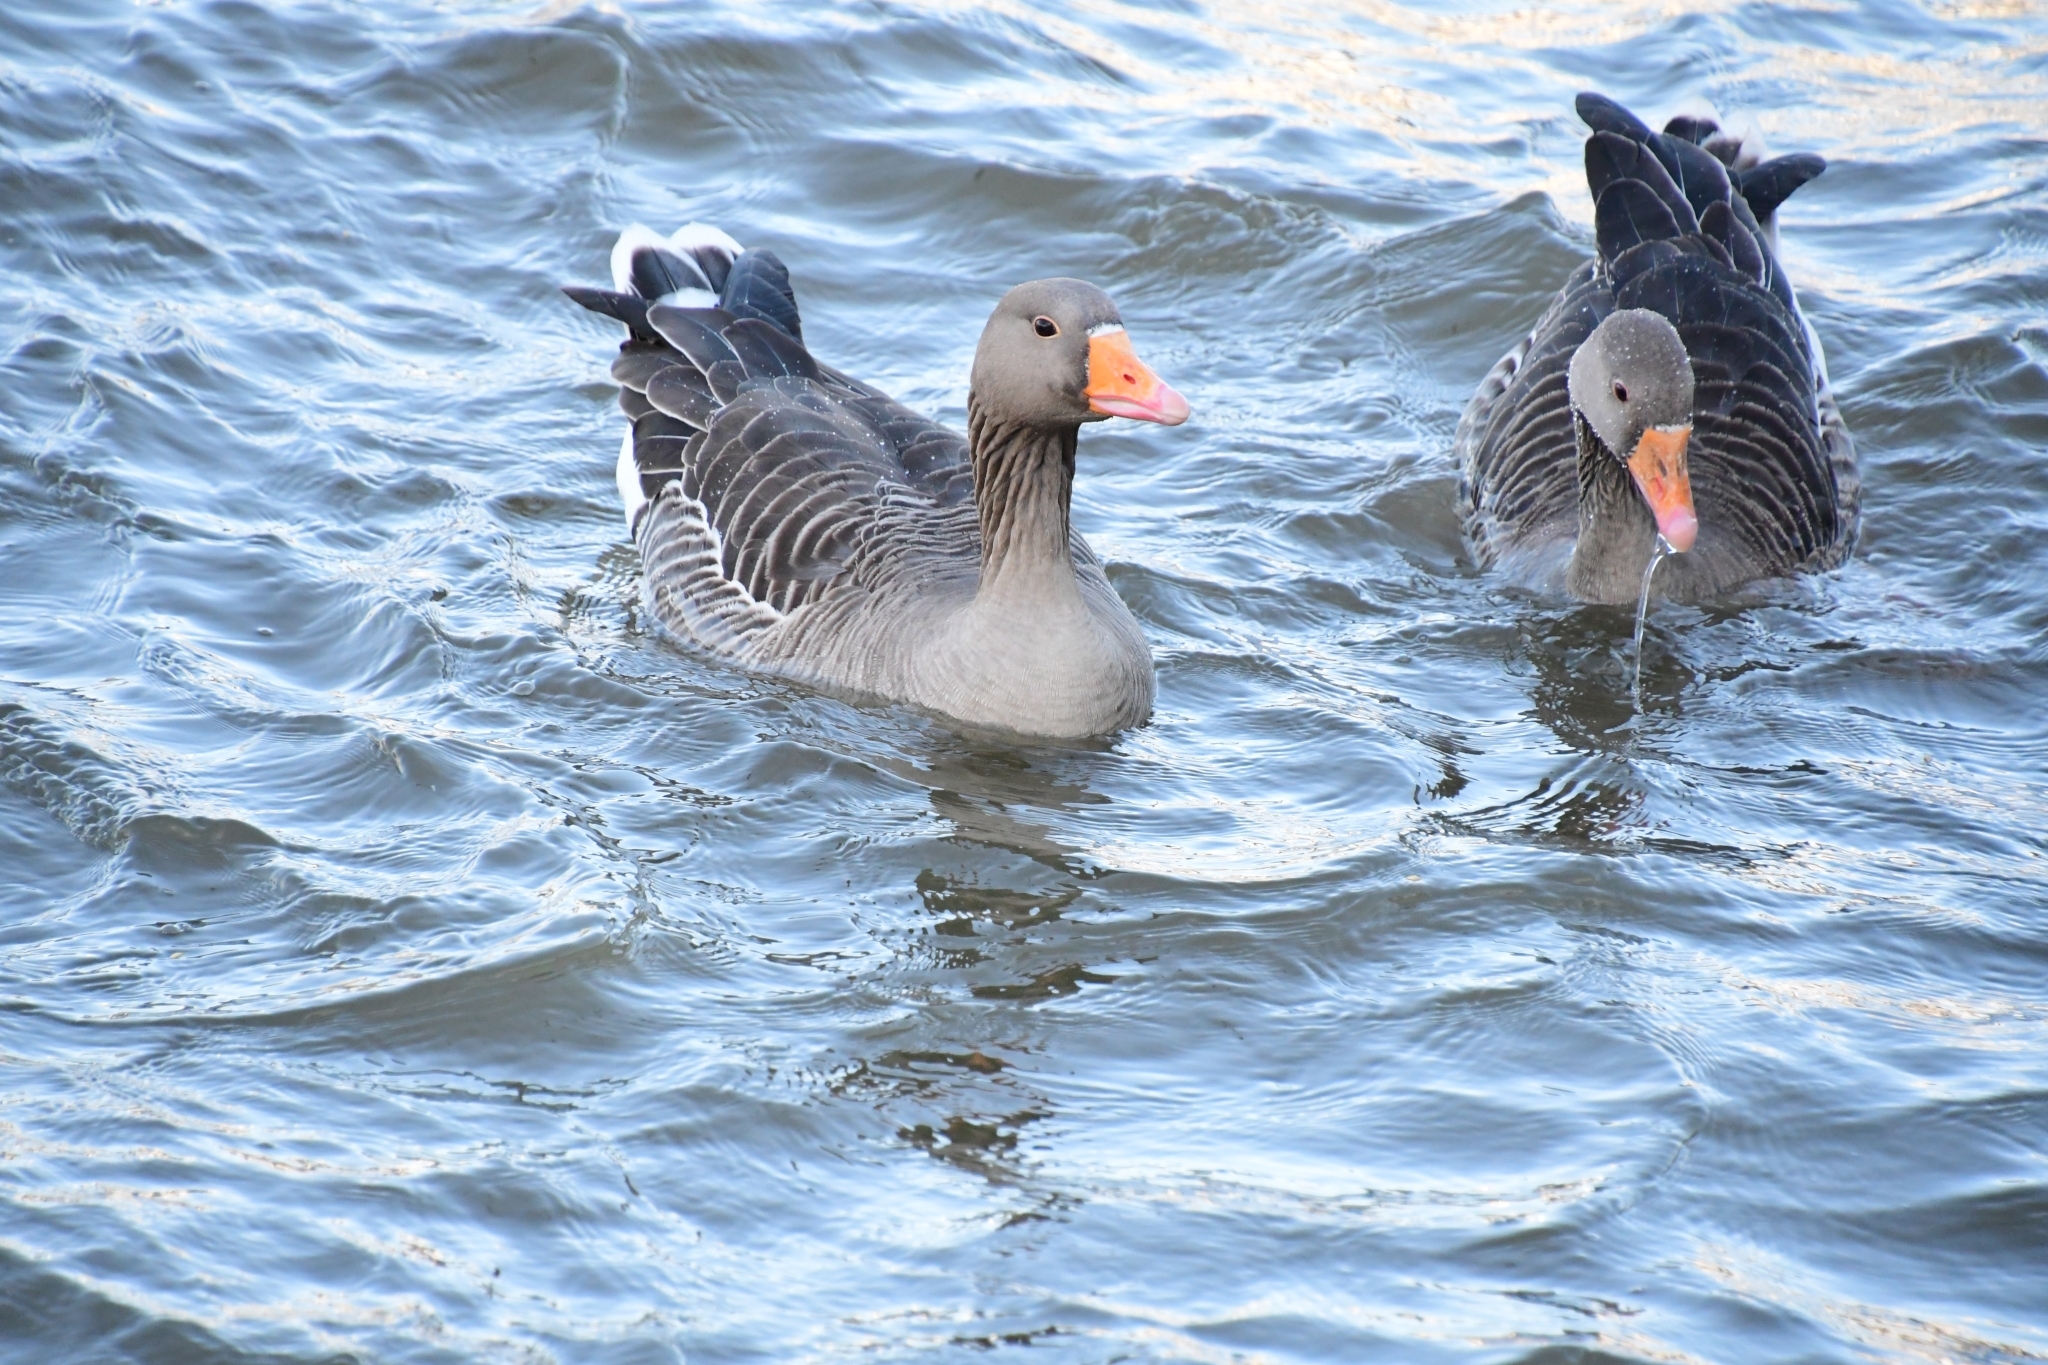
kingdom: Animalia
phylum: Chordata
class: Aves
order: Anseriformes
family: Anatidae
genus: Anser
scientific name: Anser anser
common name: Greylag goose
